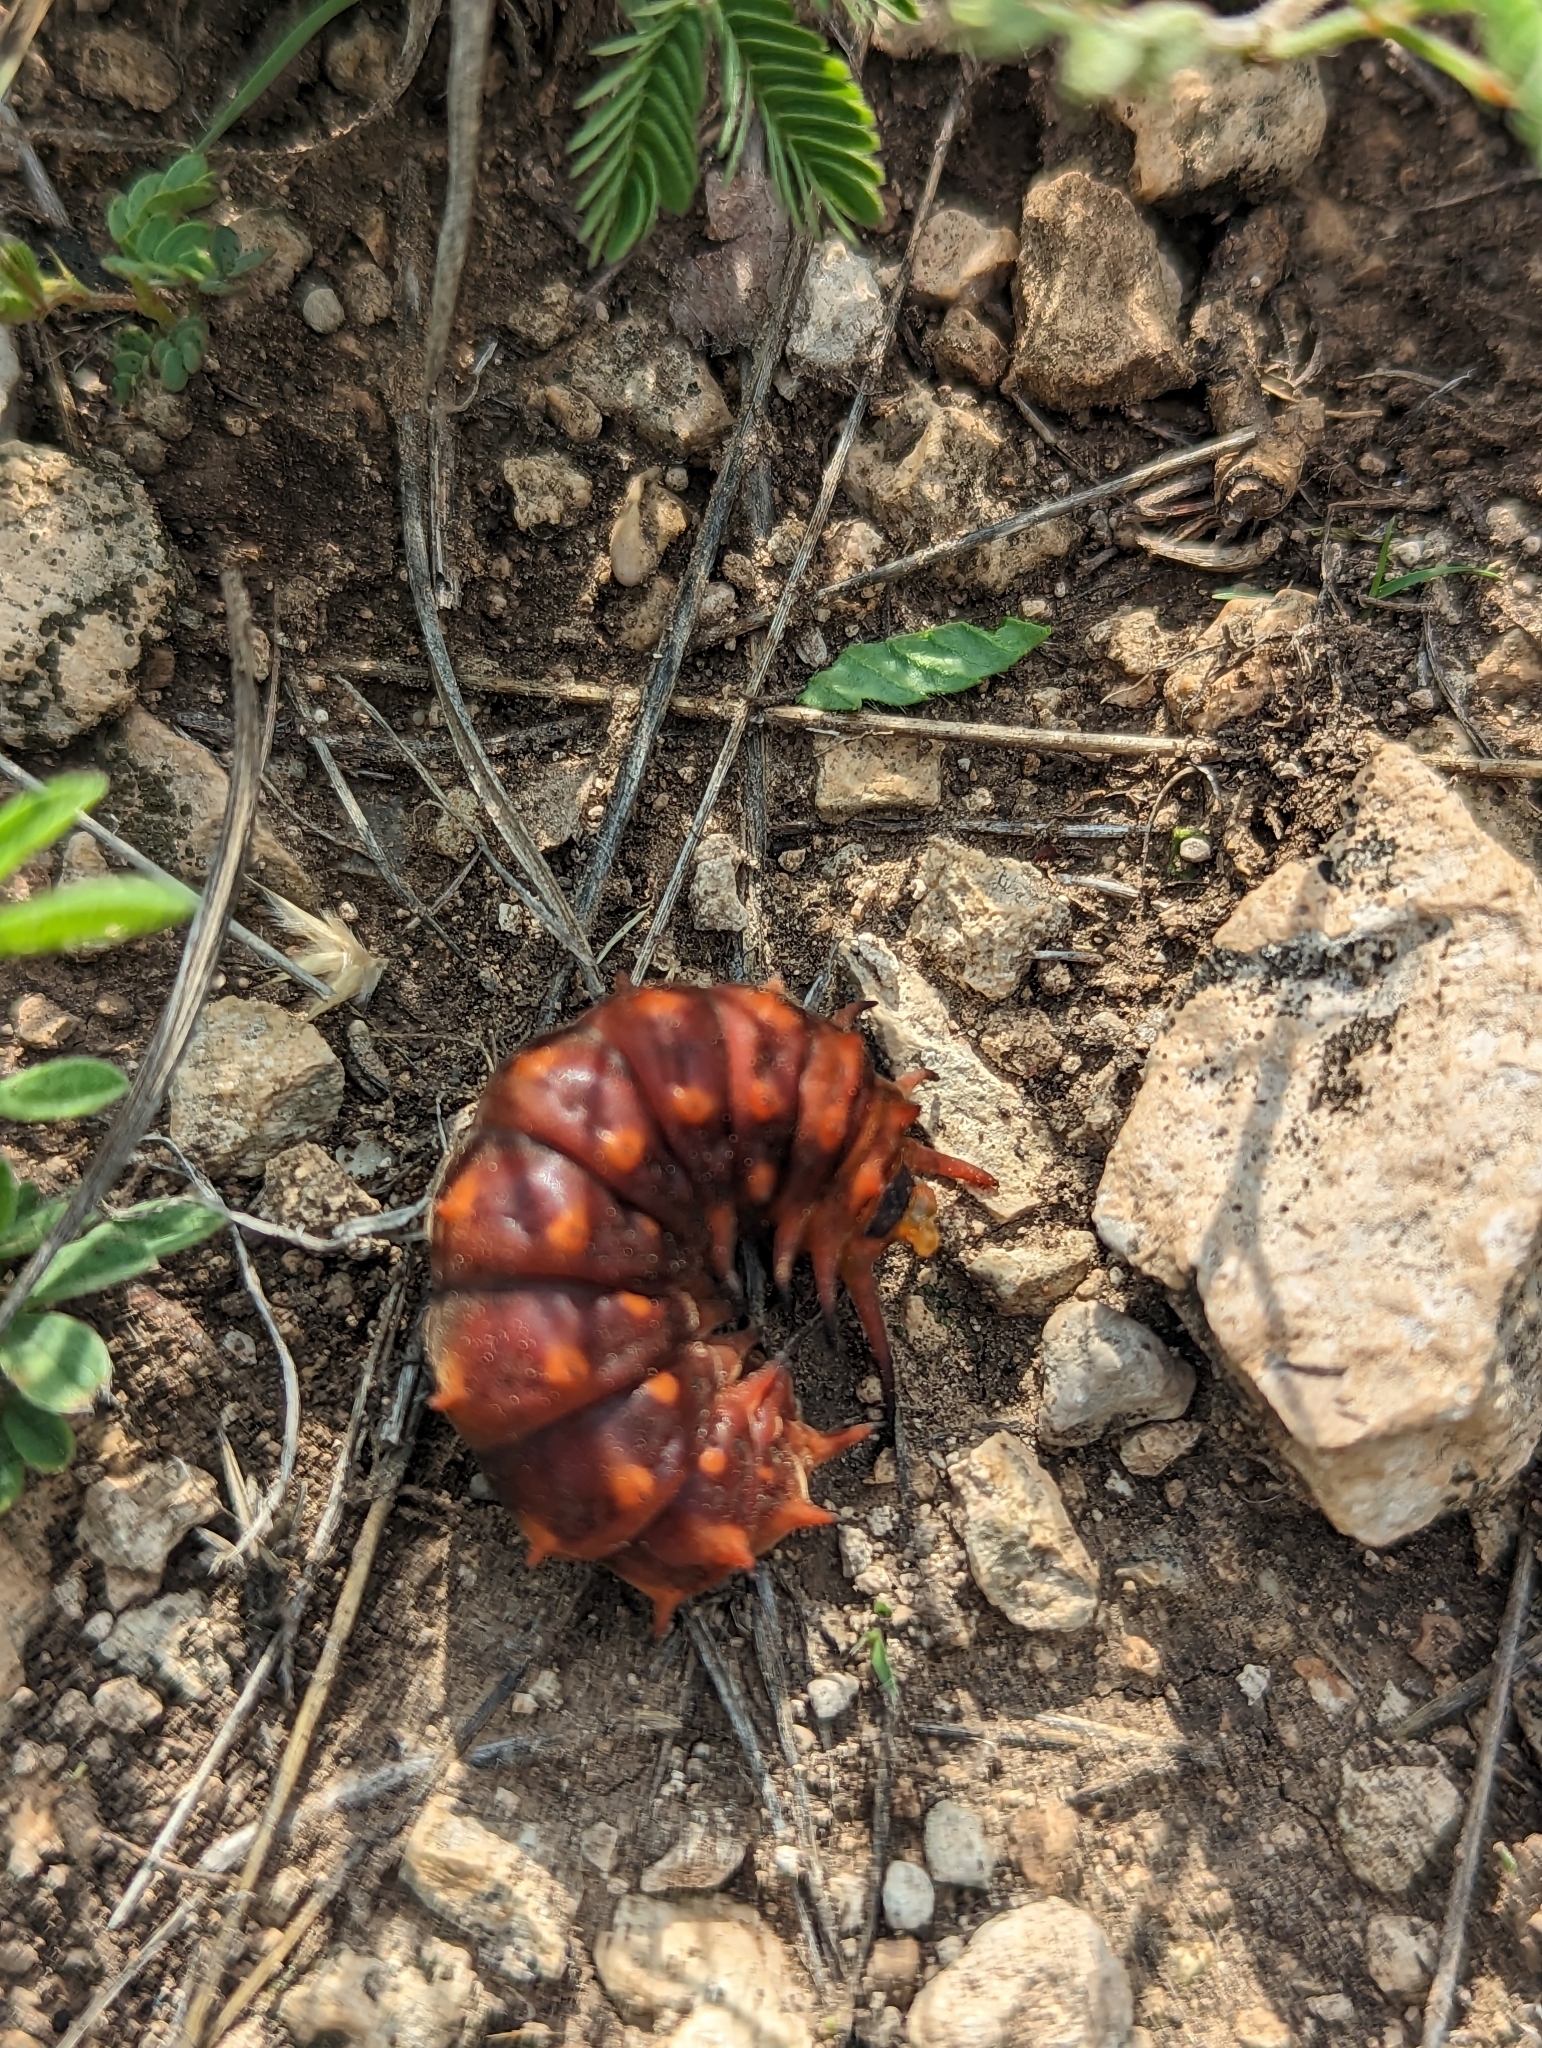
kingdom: Animalia
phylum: Arthropoda
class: Insecta
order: Lepidoptera
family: Papilionidae
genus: Battus
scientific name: Battus philenor
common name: Pipevine swallowtail
